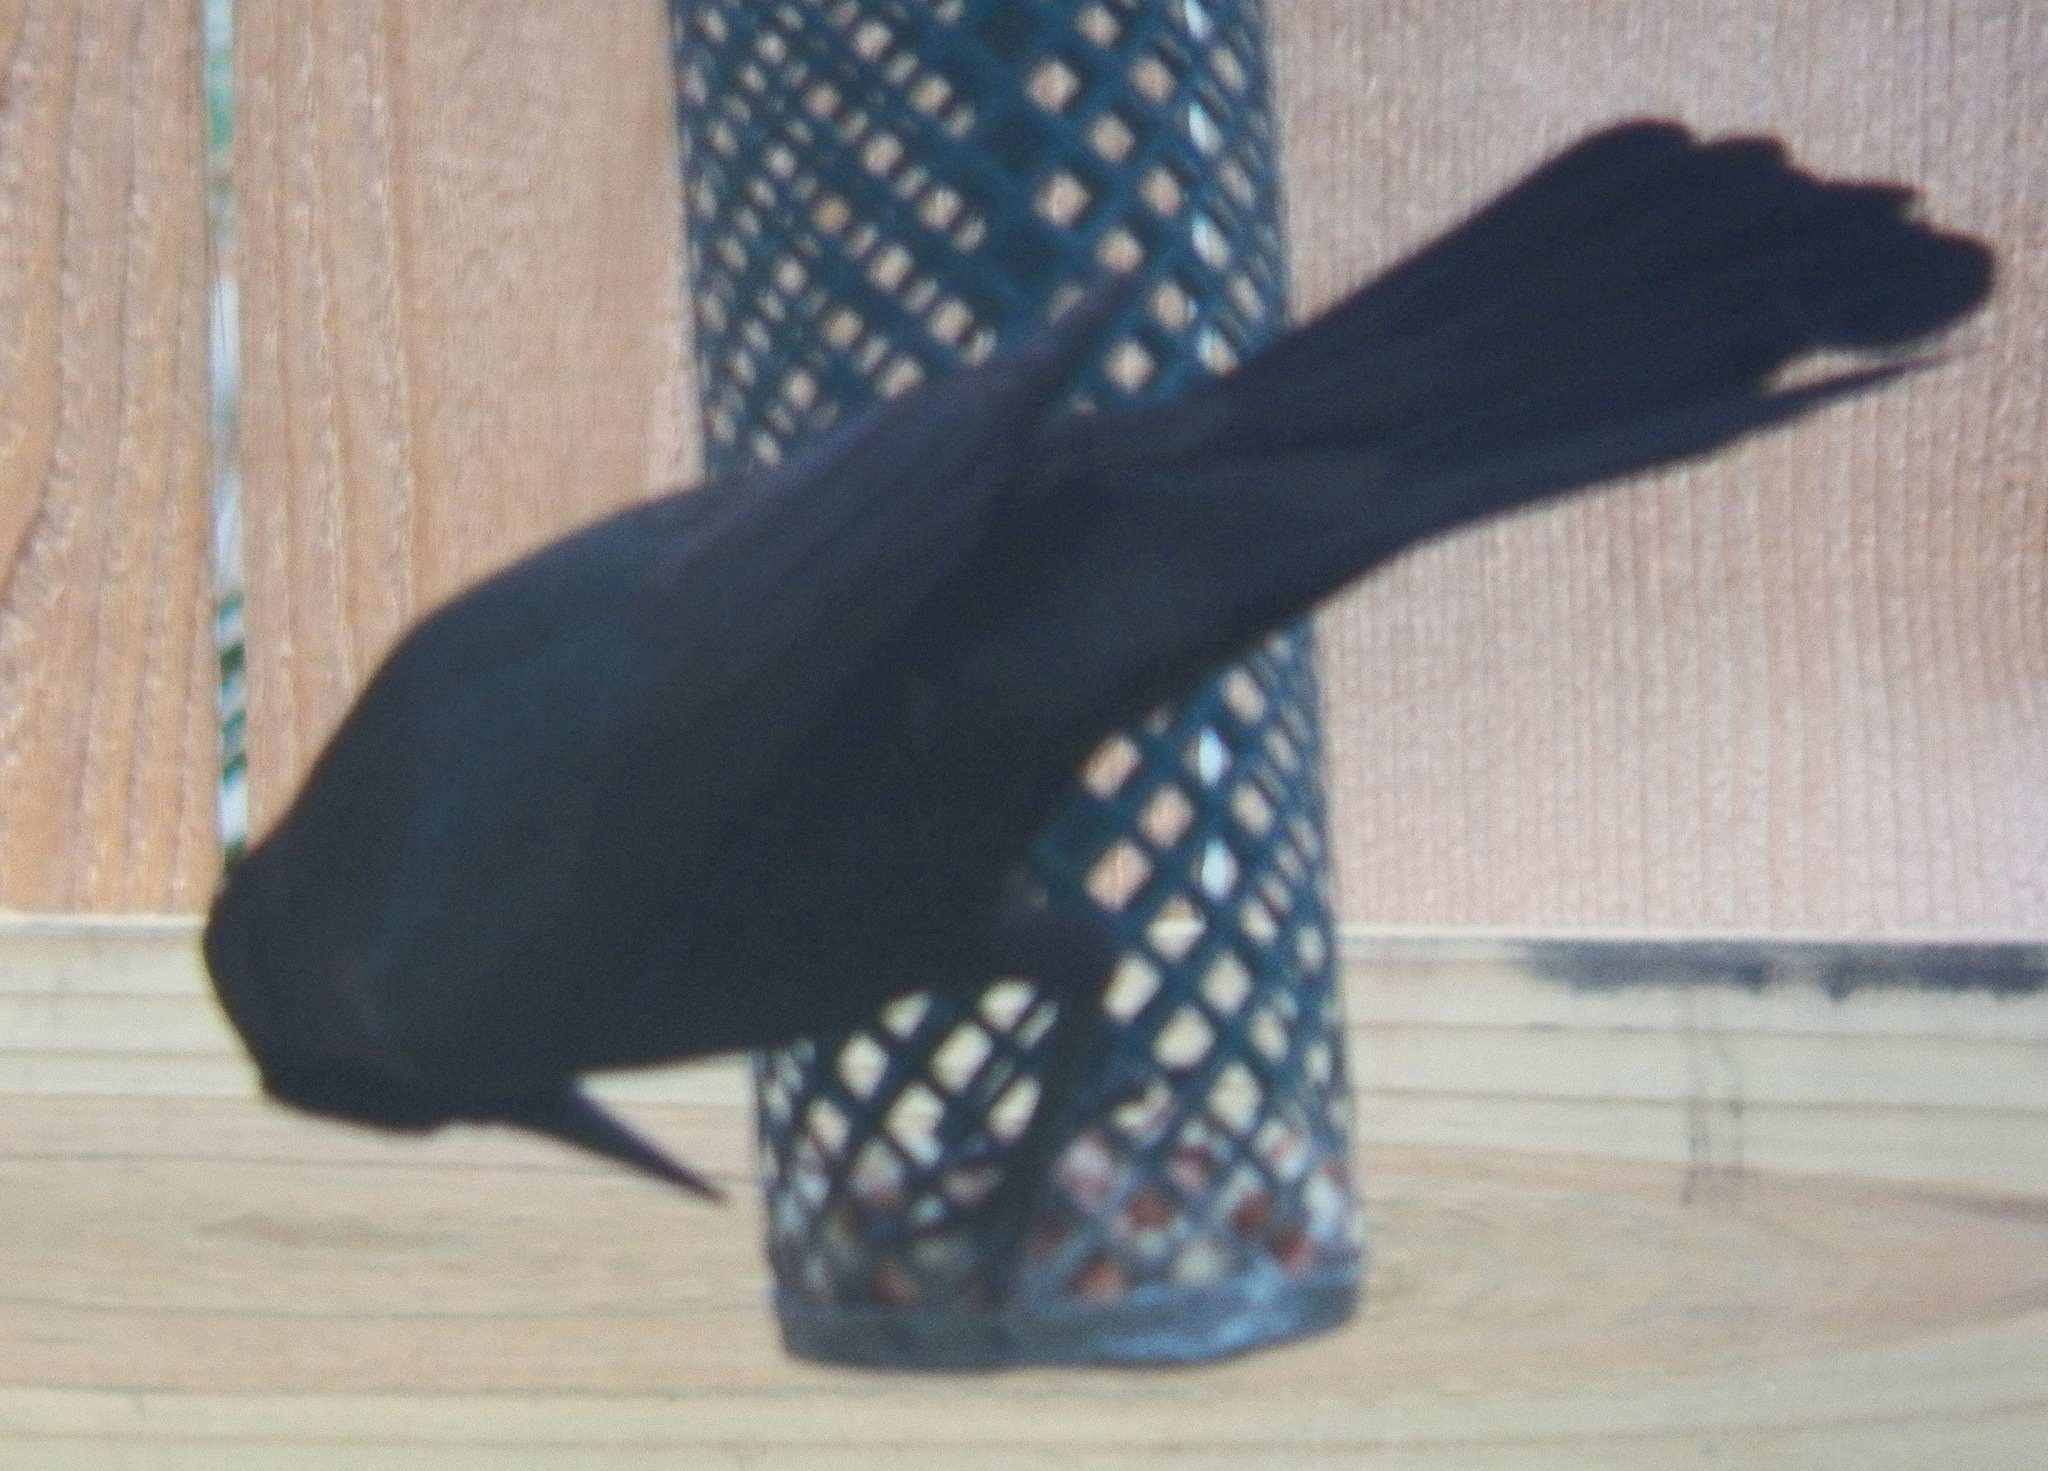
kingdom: Animalia
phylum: Chordata
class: Aves
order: Passeriformes
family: Icteridae
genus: Quiscalus
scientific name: Quiscalus quiscula
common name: Common grackle
